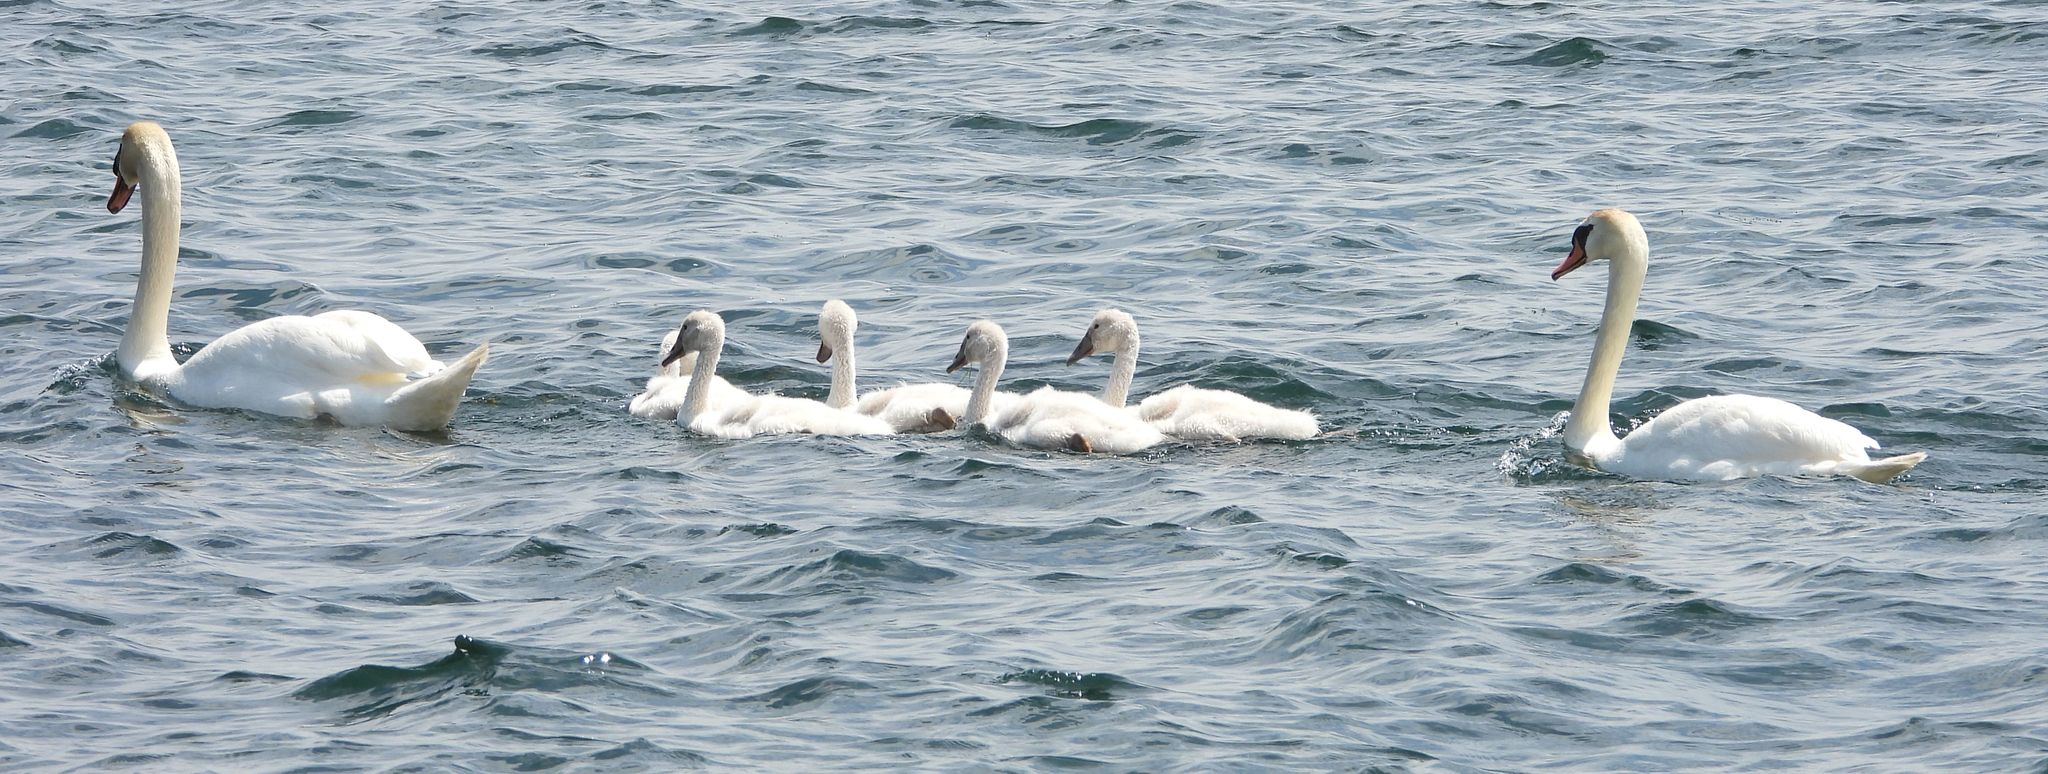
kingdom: Animalia
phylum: Chordata
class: Aves
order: Anseriformes
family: Anatidae
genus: Cygnus
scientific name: Cygnus olor
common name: Mute swan
